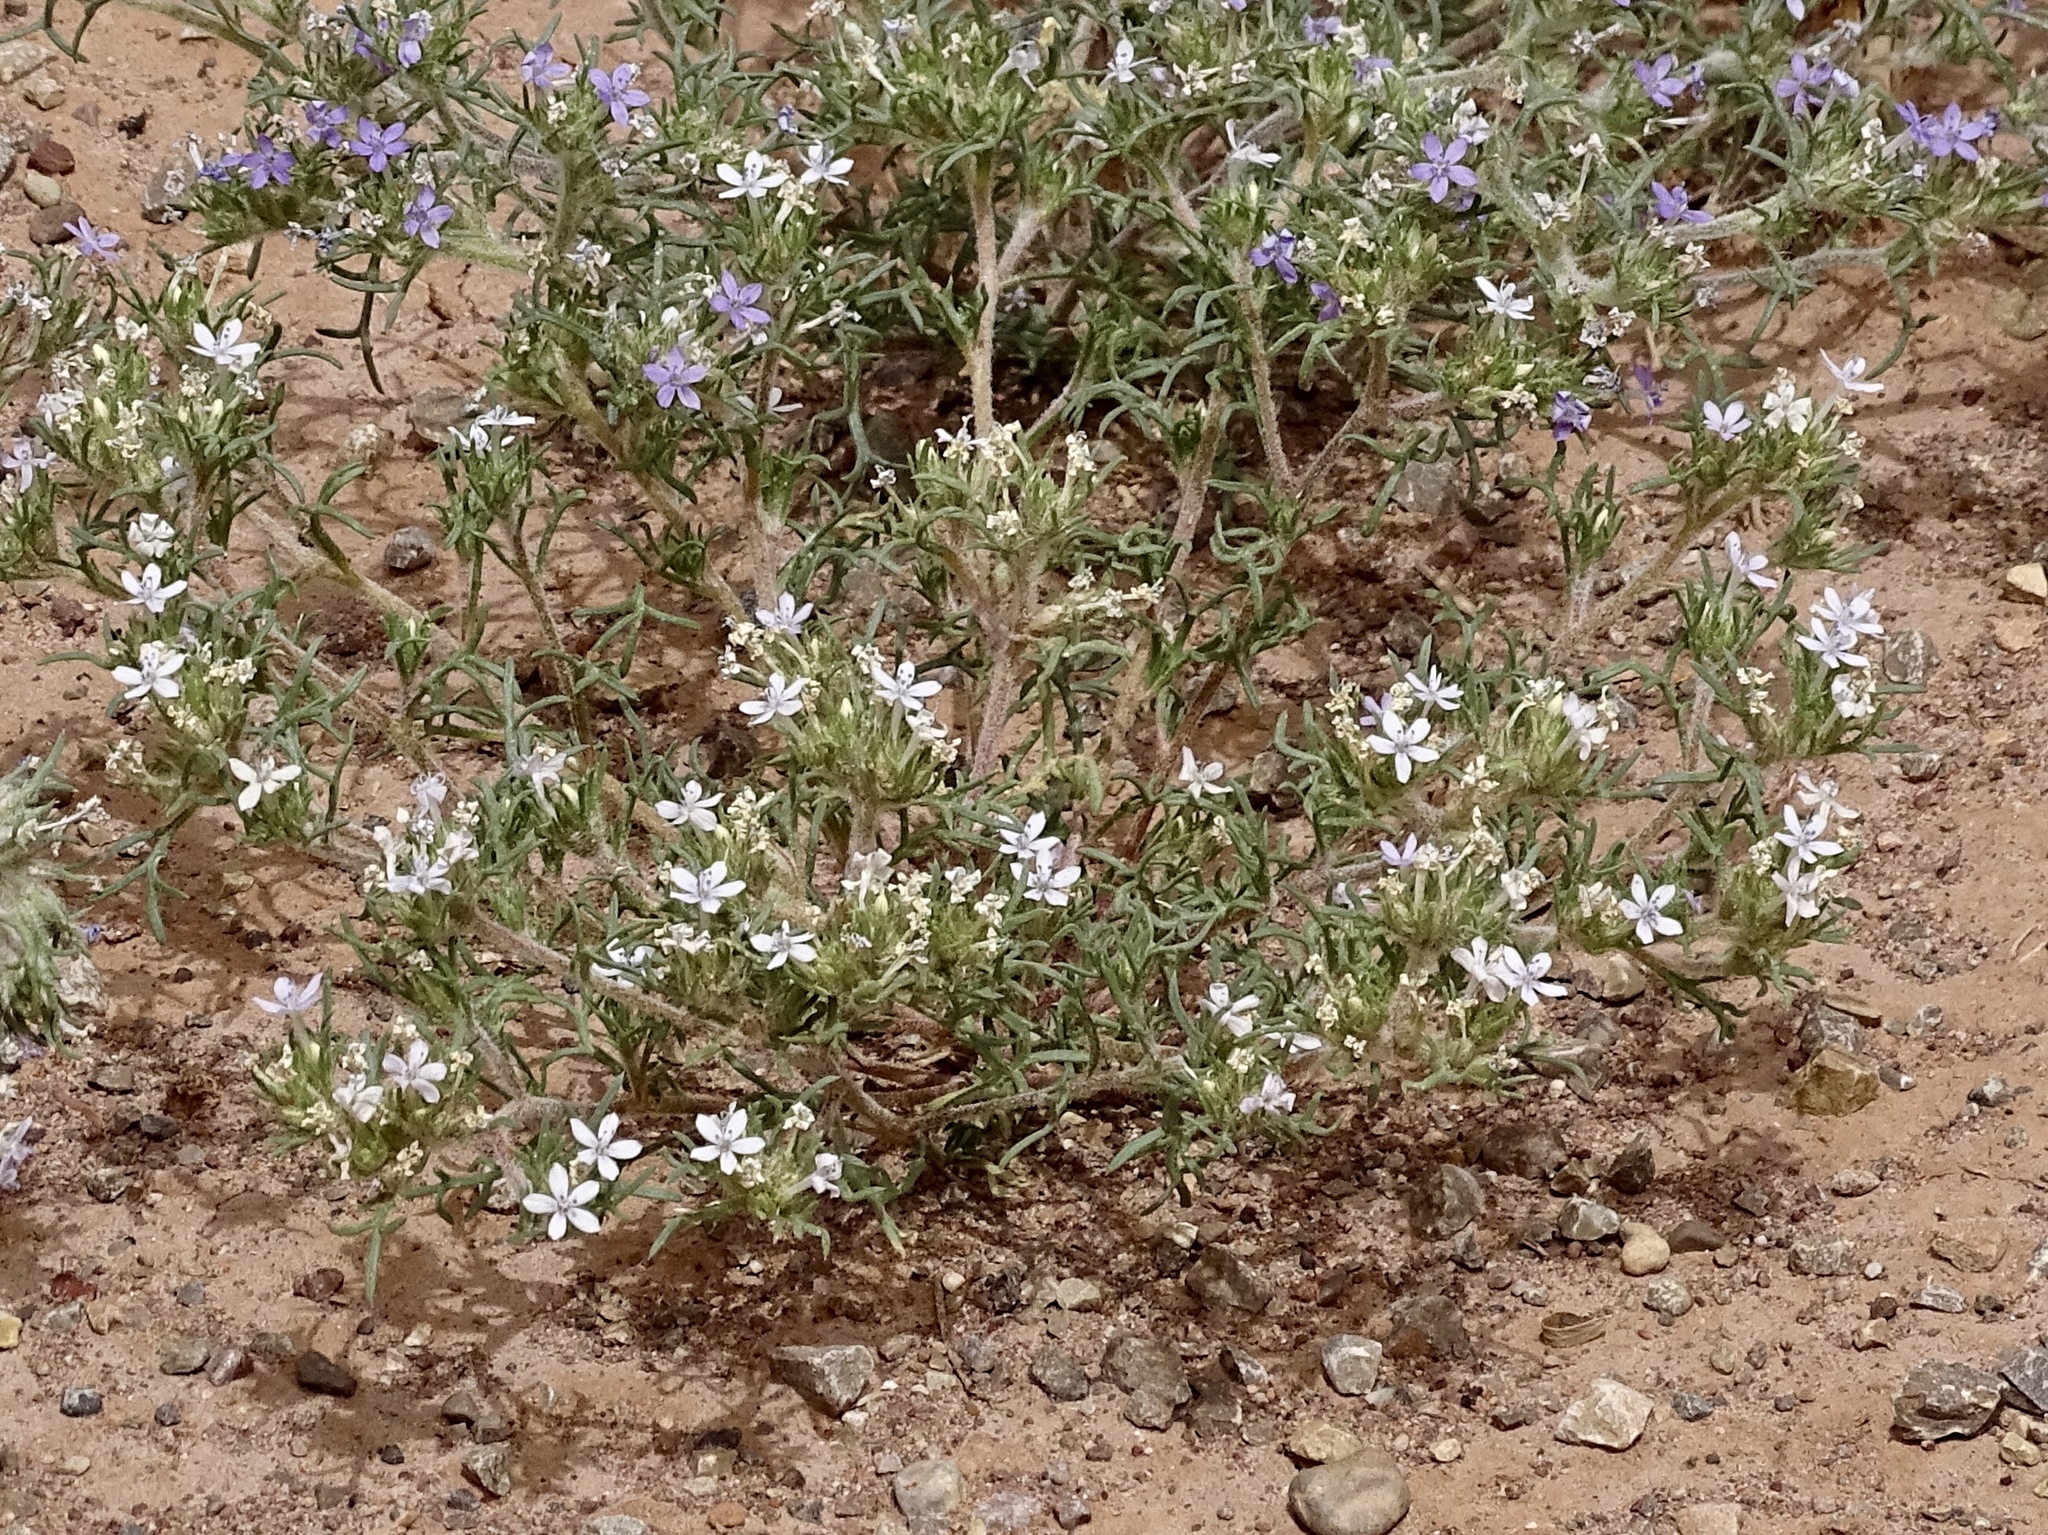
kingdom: Plantae
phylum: Tracheophyta
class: Magnoliopsida
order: Ericales
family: Polemoniaceae
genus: Ipomopsis
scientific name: Ipomopsis pumila
